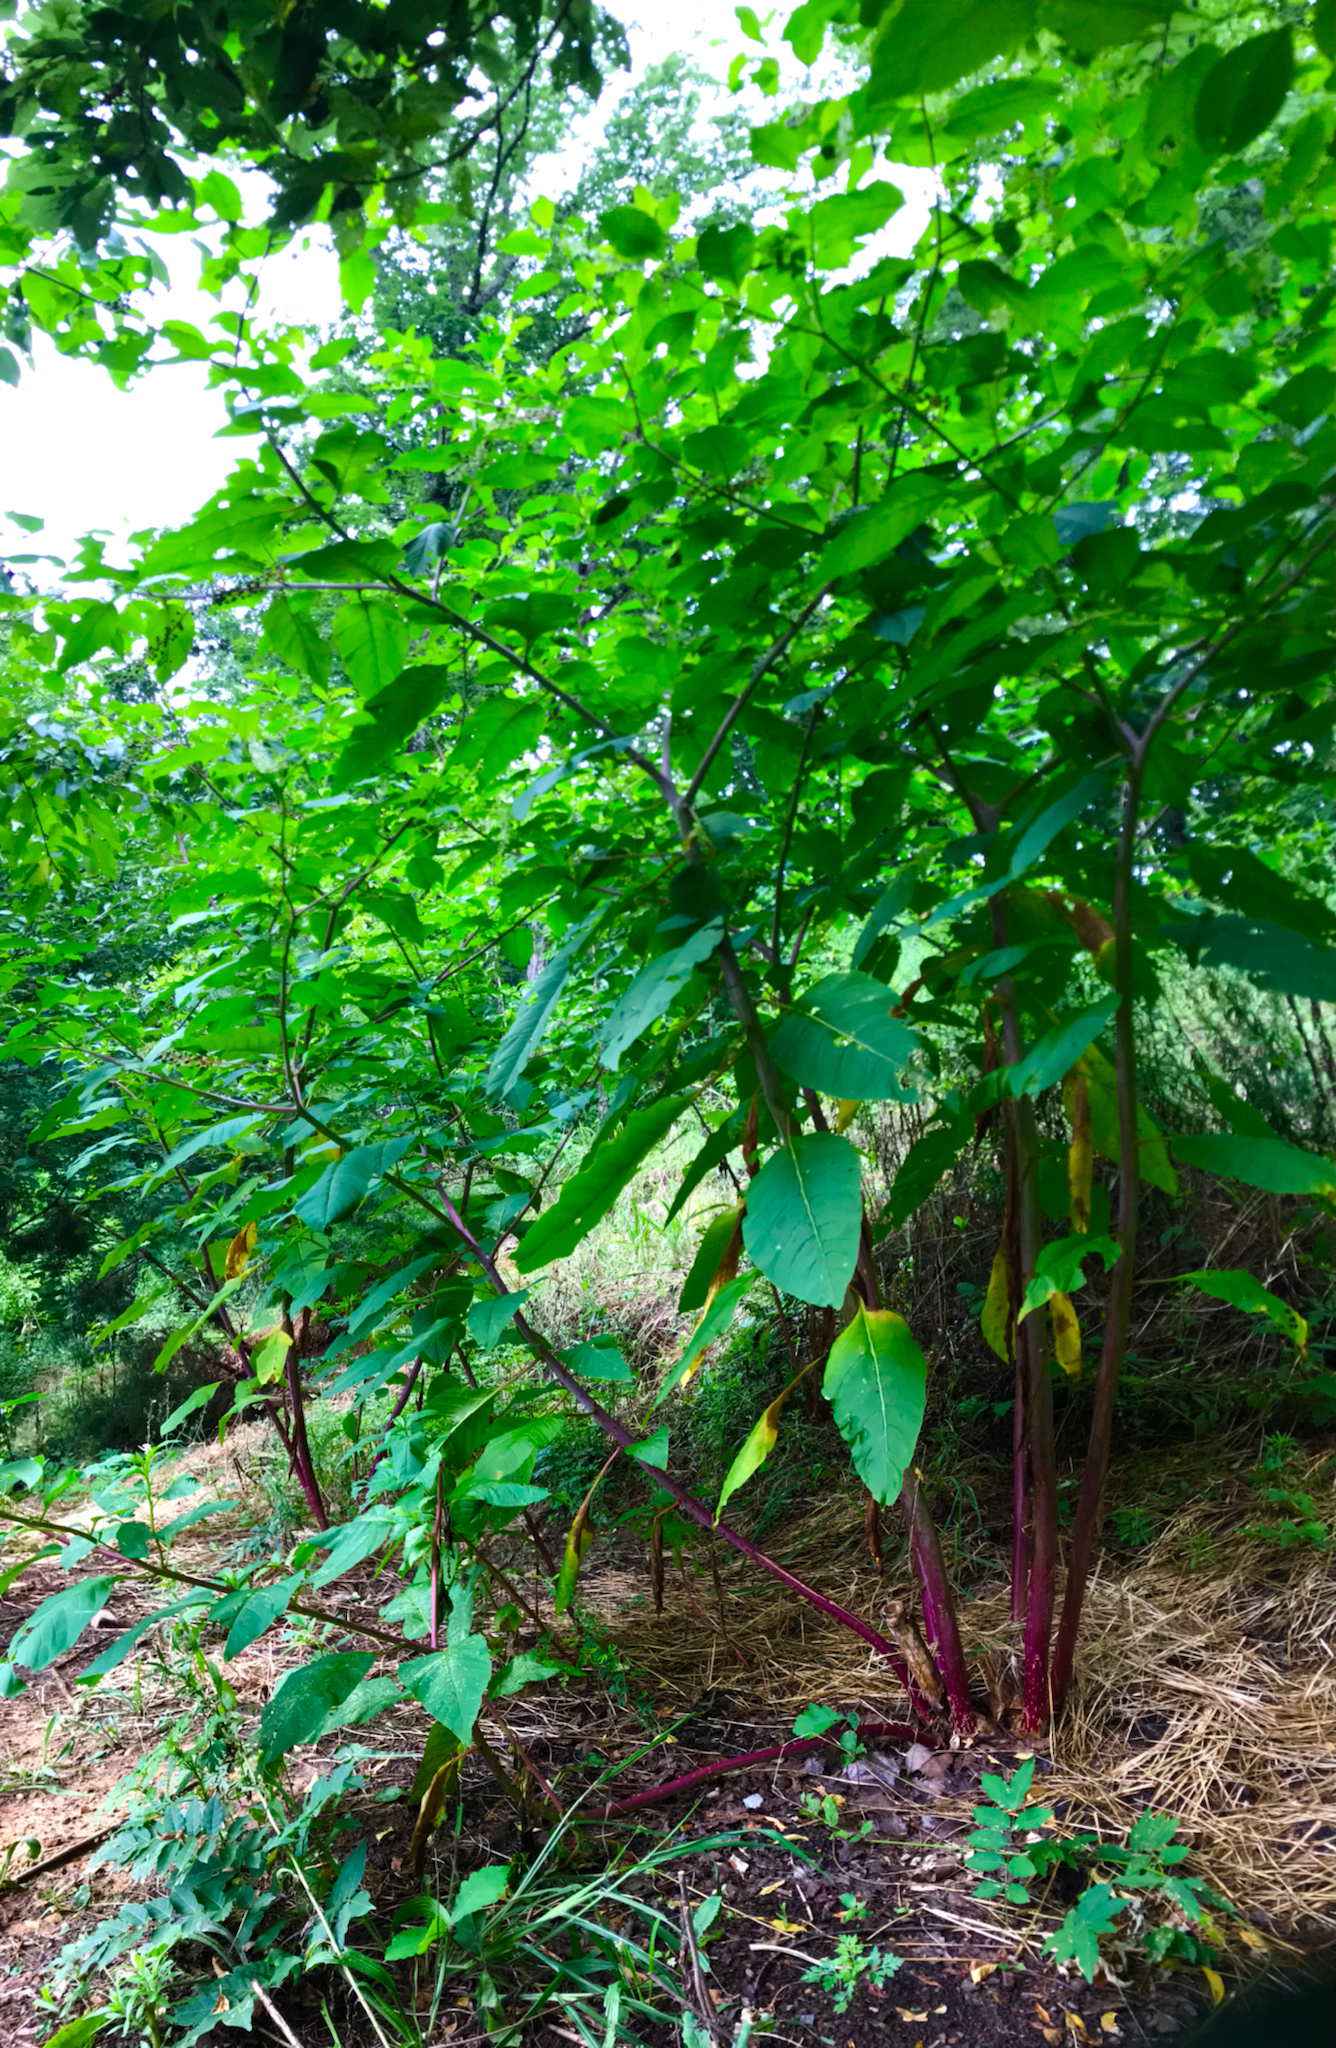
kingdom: Plantae
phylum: Tracheophyta
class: Magnoliopsida
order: Caryophyllales
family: Phytolaccaceae
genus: Phytolacca
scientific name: Phytolacca americana
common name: American pokeweed
